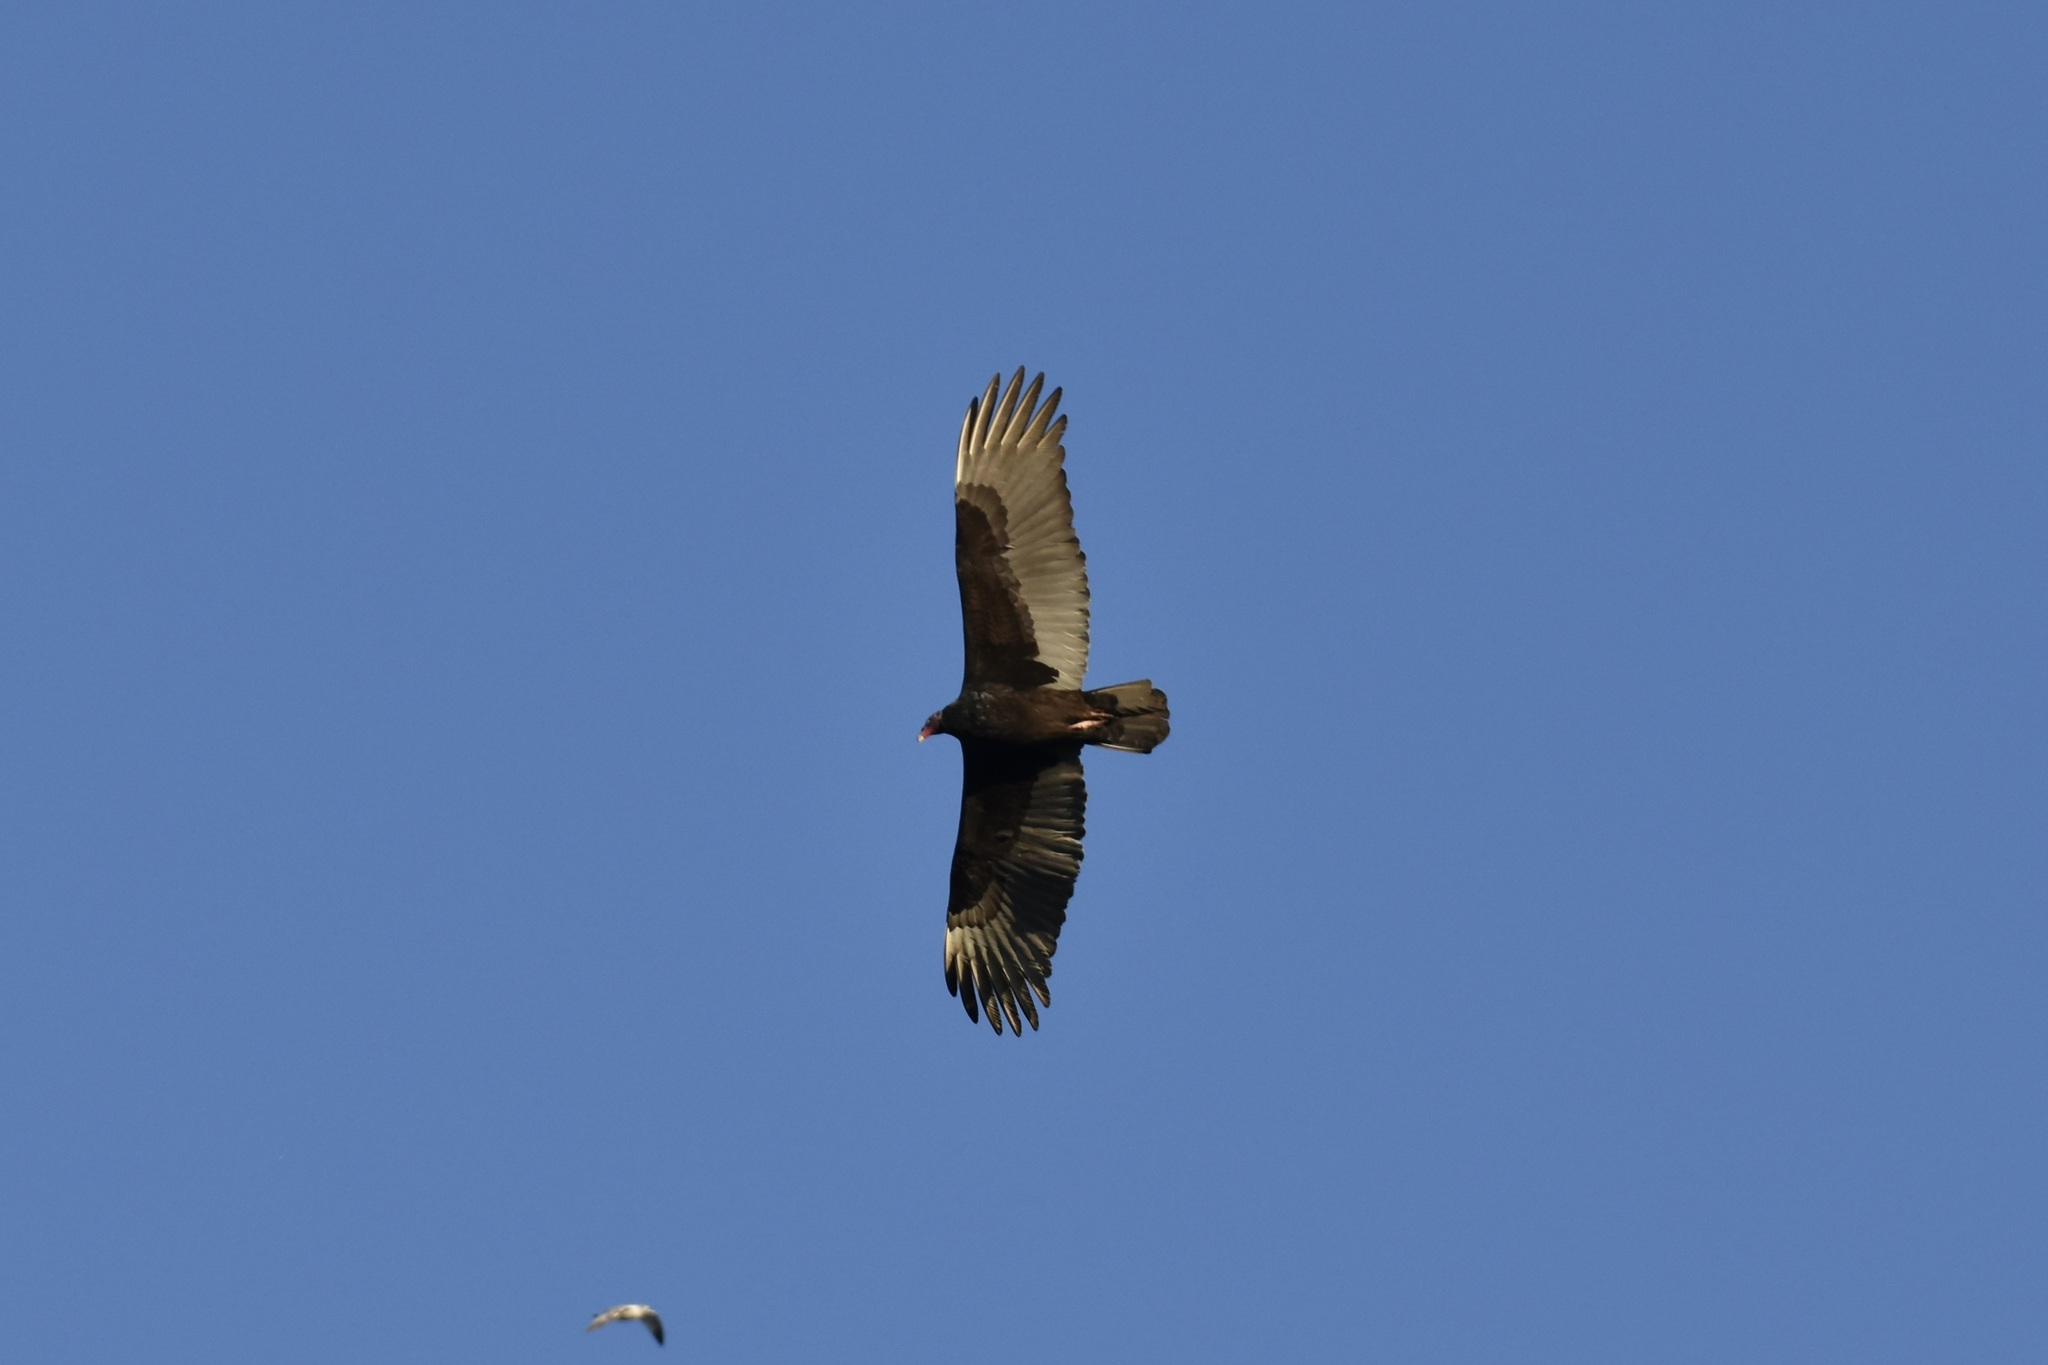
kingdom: Animalia
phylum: Chordata
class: Aves
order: Accipitriformes
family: Cathartidae
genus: Cathartes
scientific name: Cathartes aura
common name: Turkey vulture
